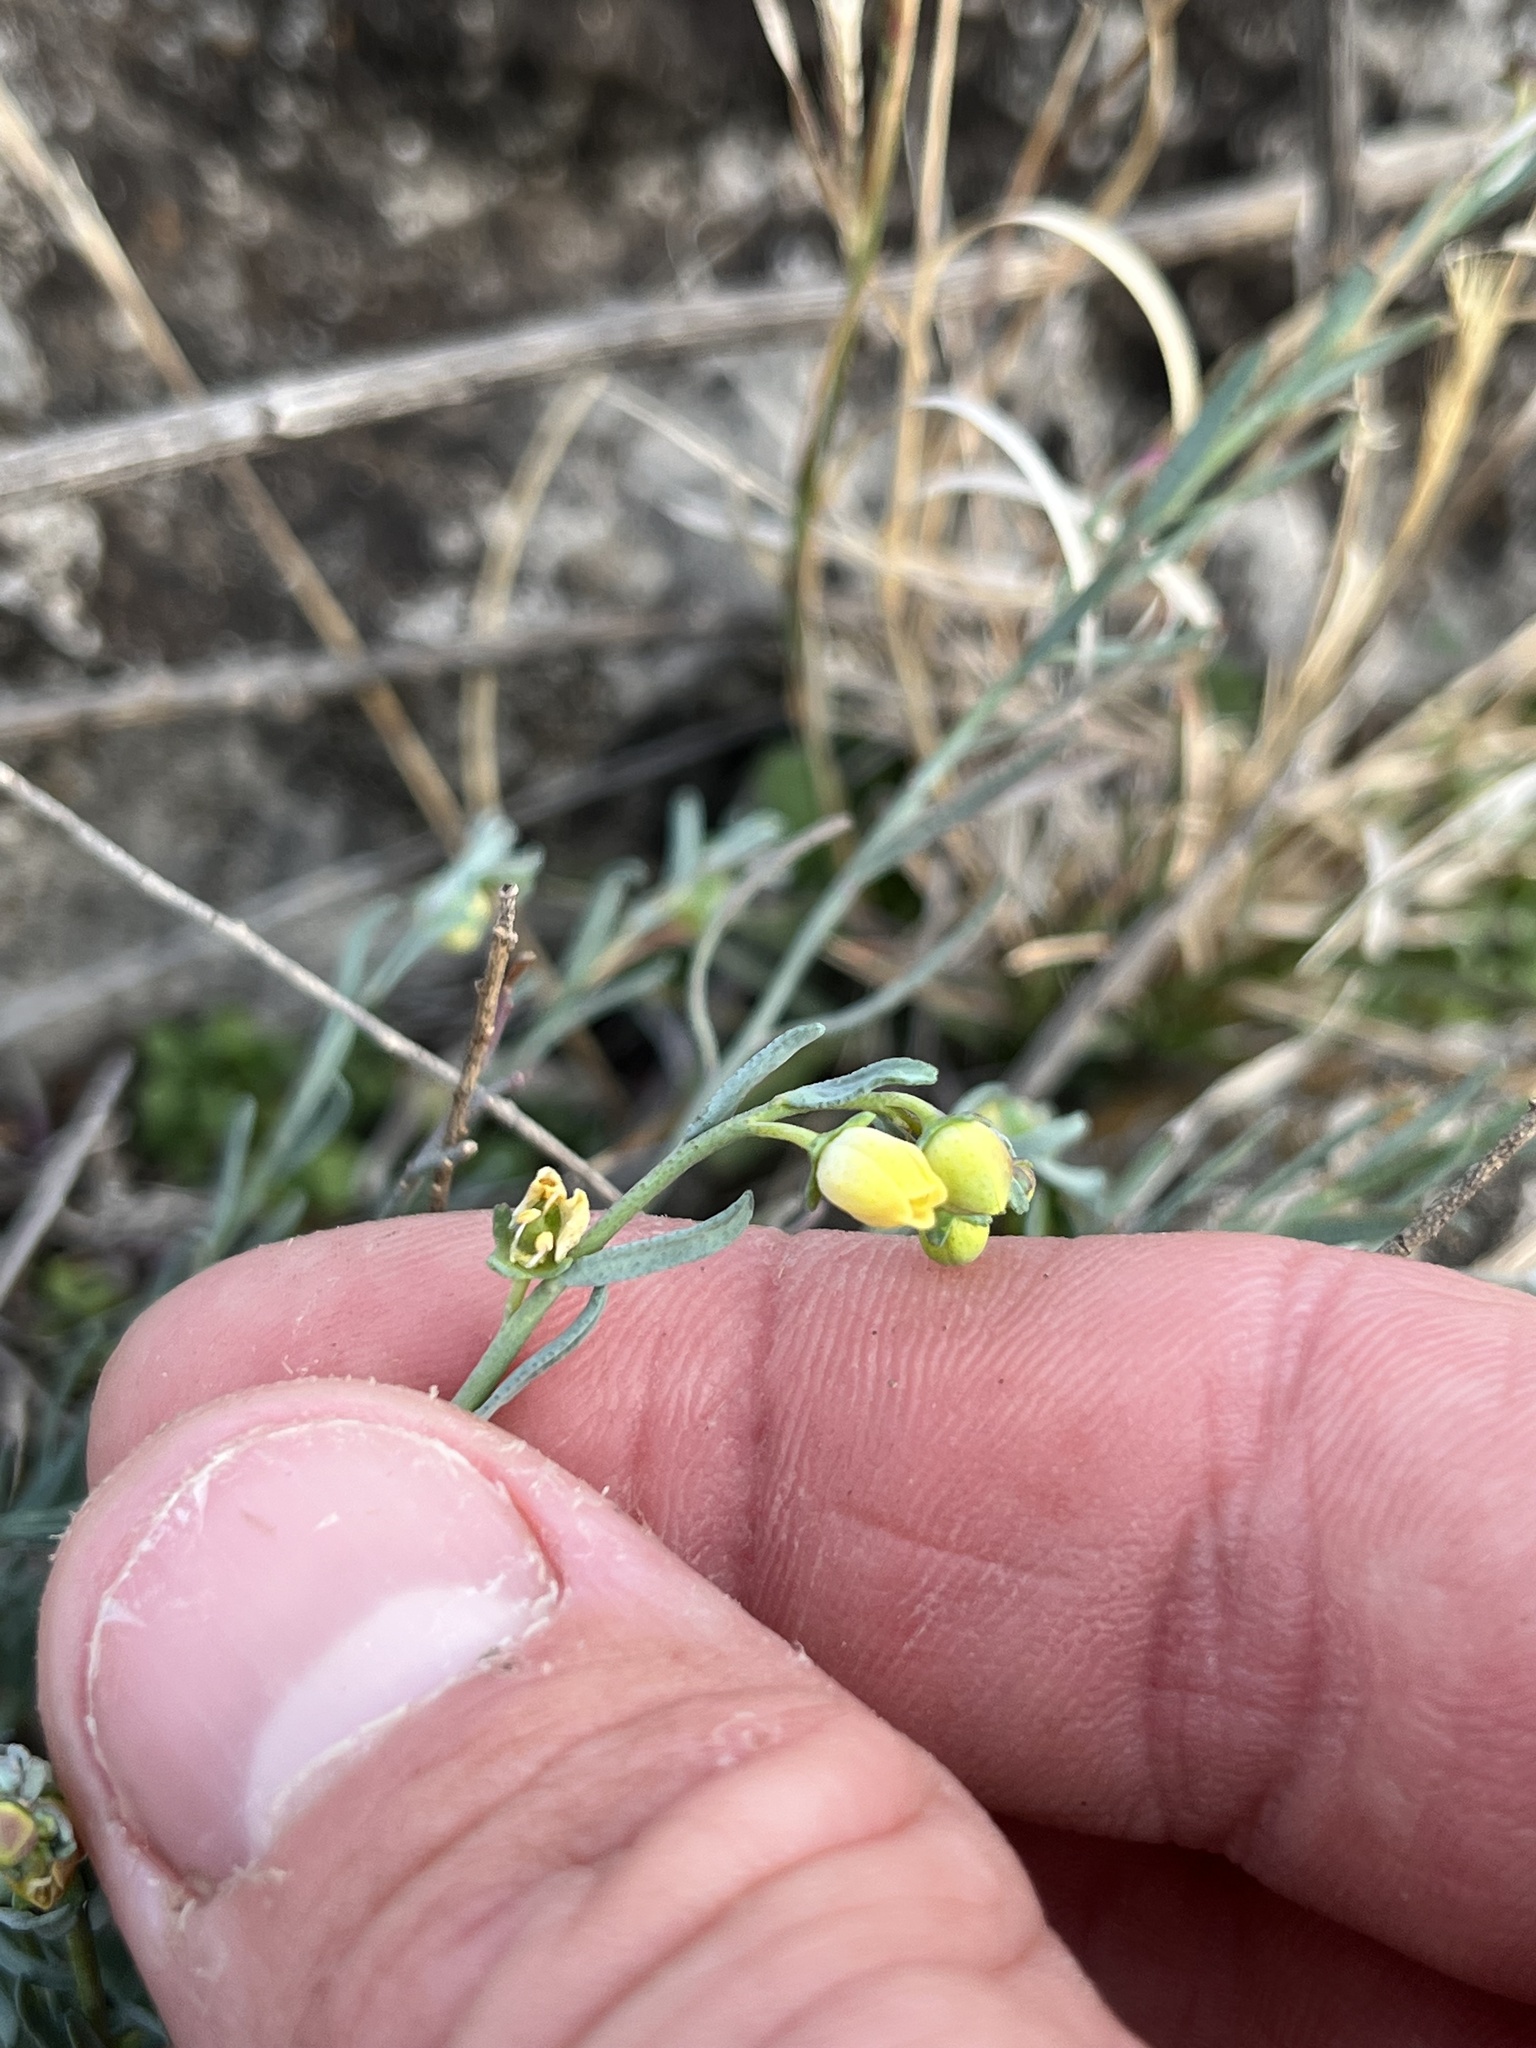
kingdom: Plantae
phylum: Tracheophyta
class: Magnoliopsida
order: Sapindales
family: Rutaceae
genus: Thamnosma
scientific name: Thamnosma texana
